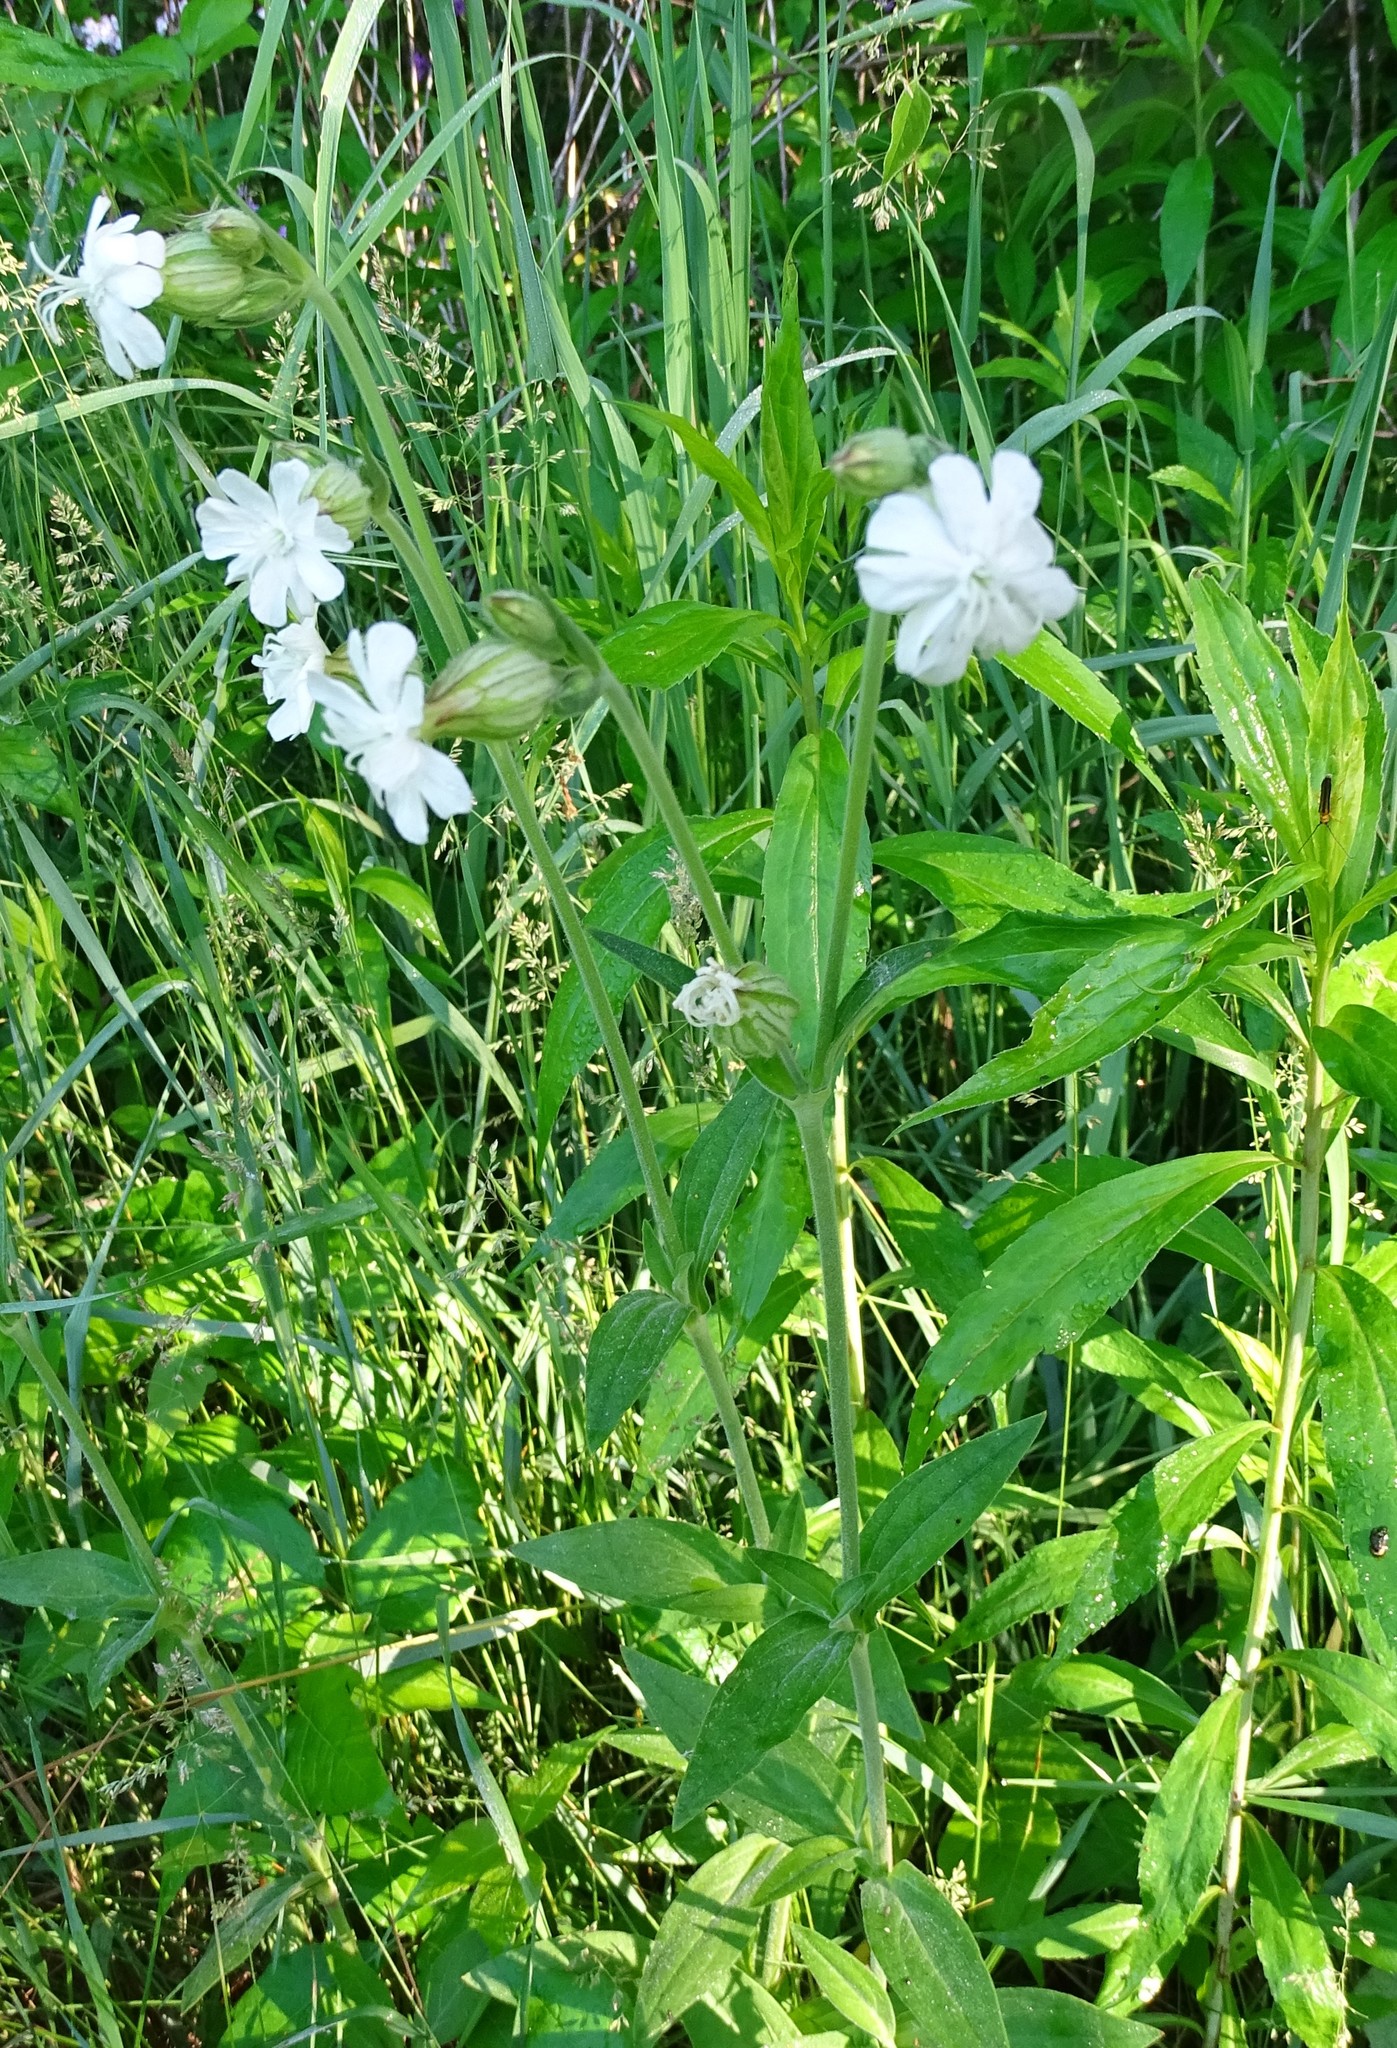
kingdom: Plantae
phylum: Tracheophyta
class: Magnoliopsida
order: Caryophyllales
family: Caryophyllaceae
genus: Silene
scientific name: Silene latifolia
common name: White campion
